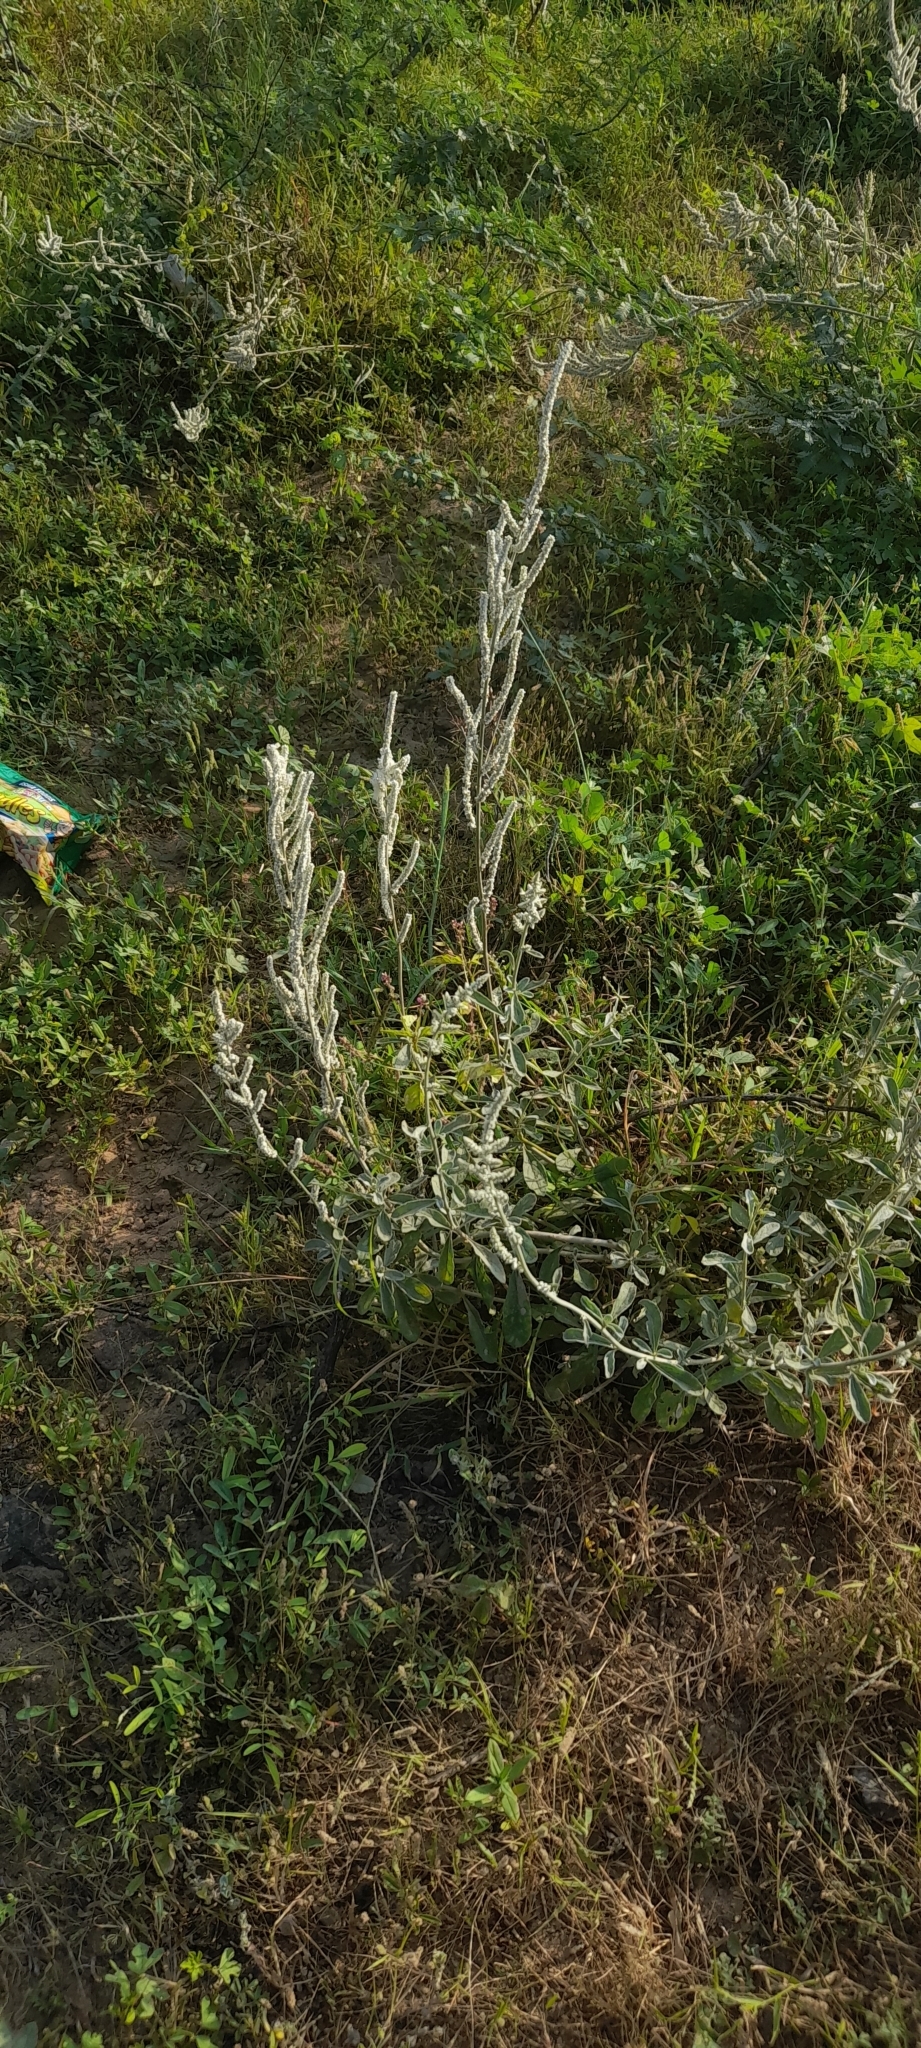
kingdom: Plantae
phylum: Tracheophyta
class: Magnoliopsida
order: Caryophyllales
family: Amaranthaceae
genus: Aerva
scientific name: Aerva javanica
